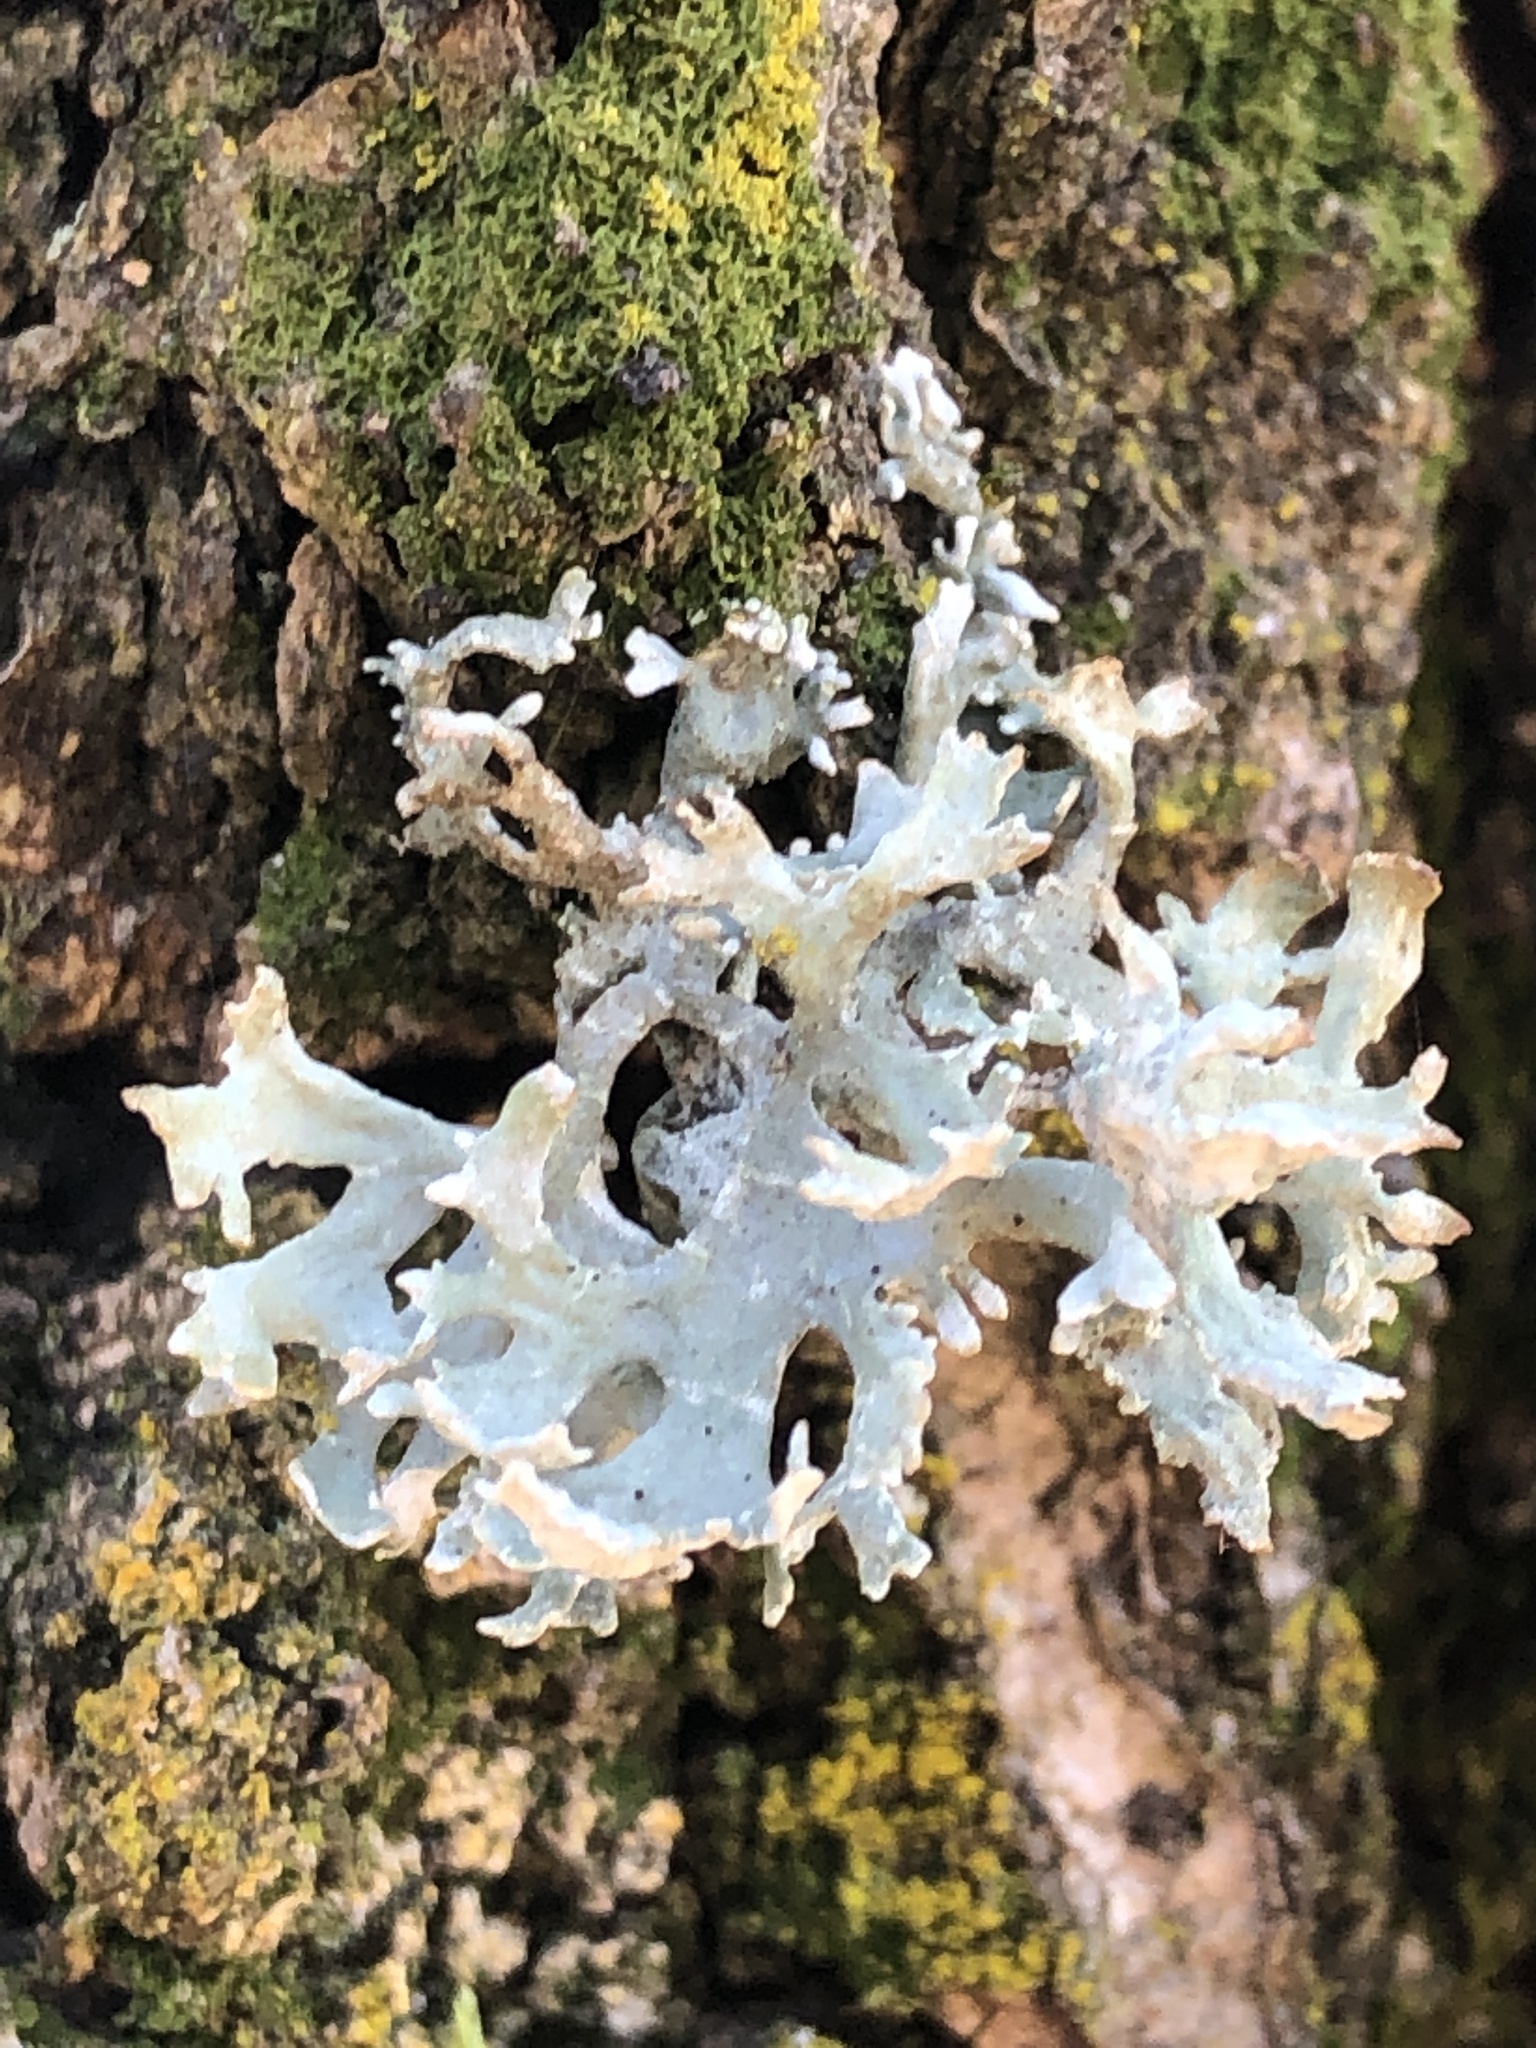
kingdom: Fungi
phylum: Ascomycota
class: Lecanoromycetes
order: Lecanorales
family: Parmeliaceae
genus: Evernia
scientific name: Evernia prunastri
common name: Oak moss
